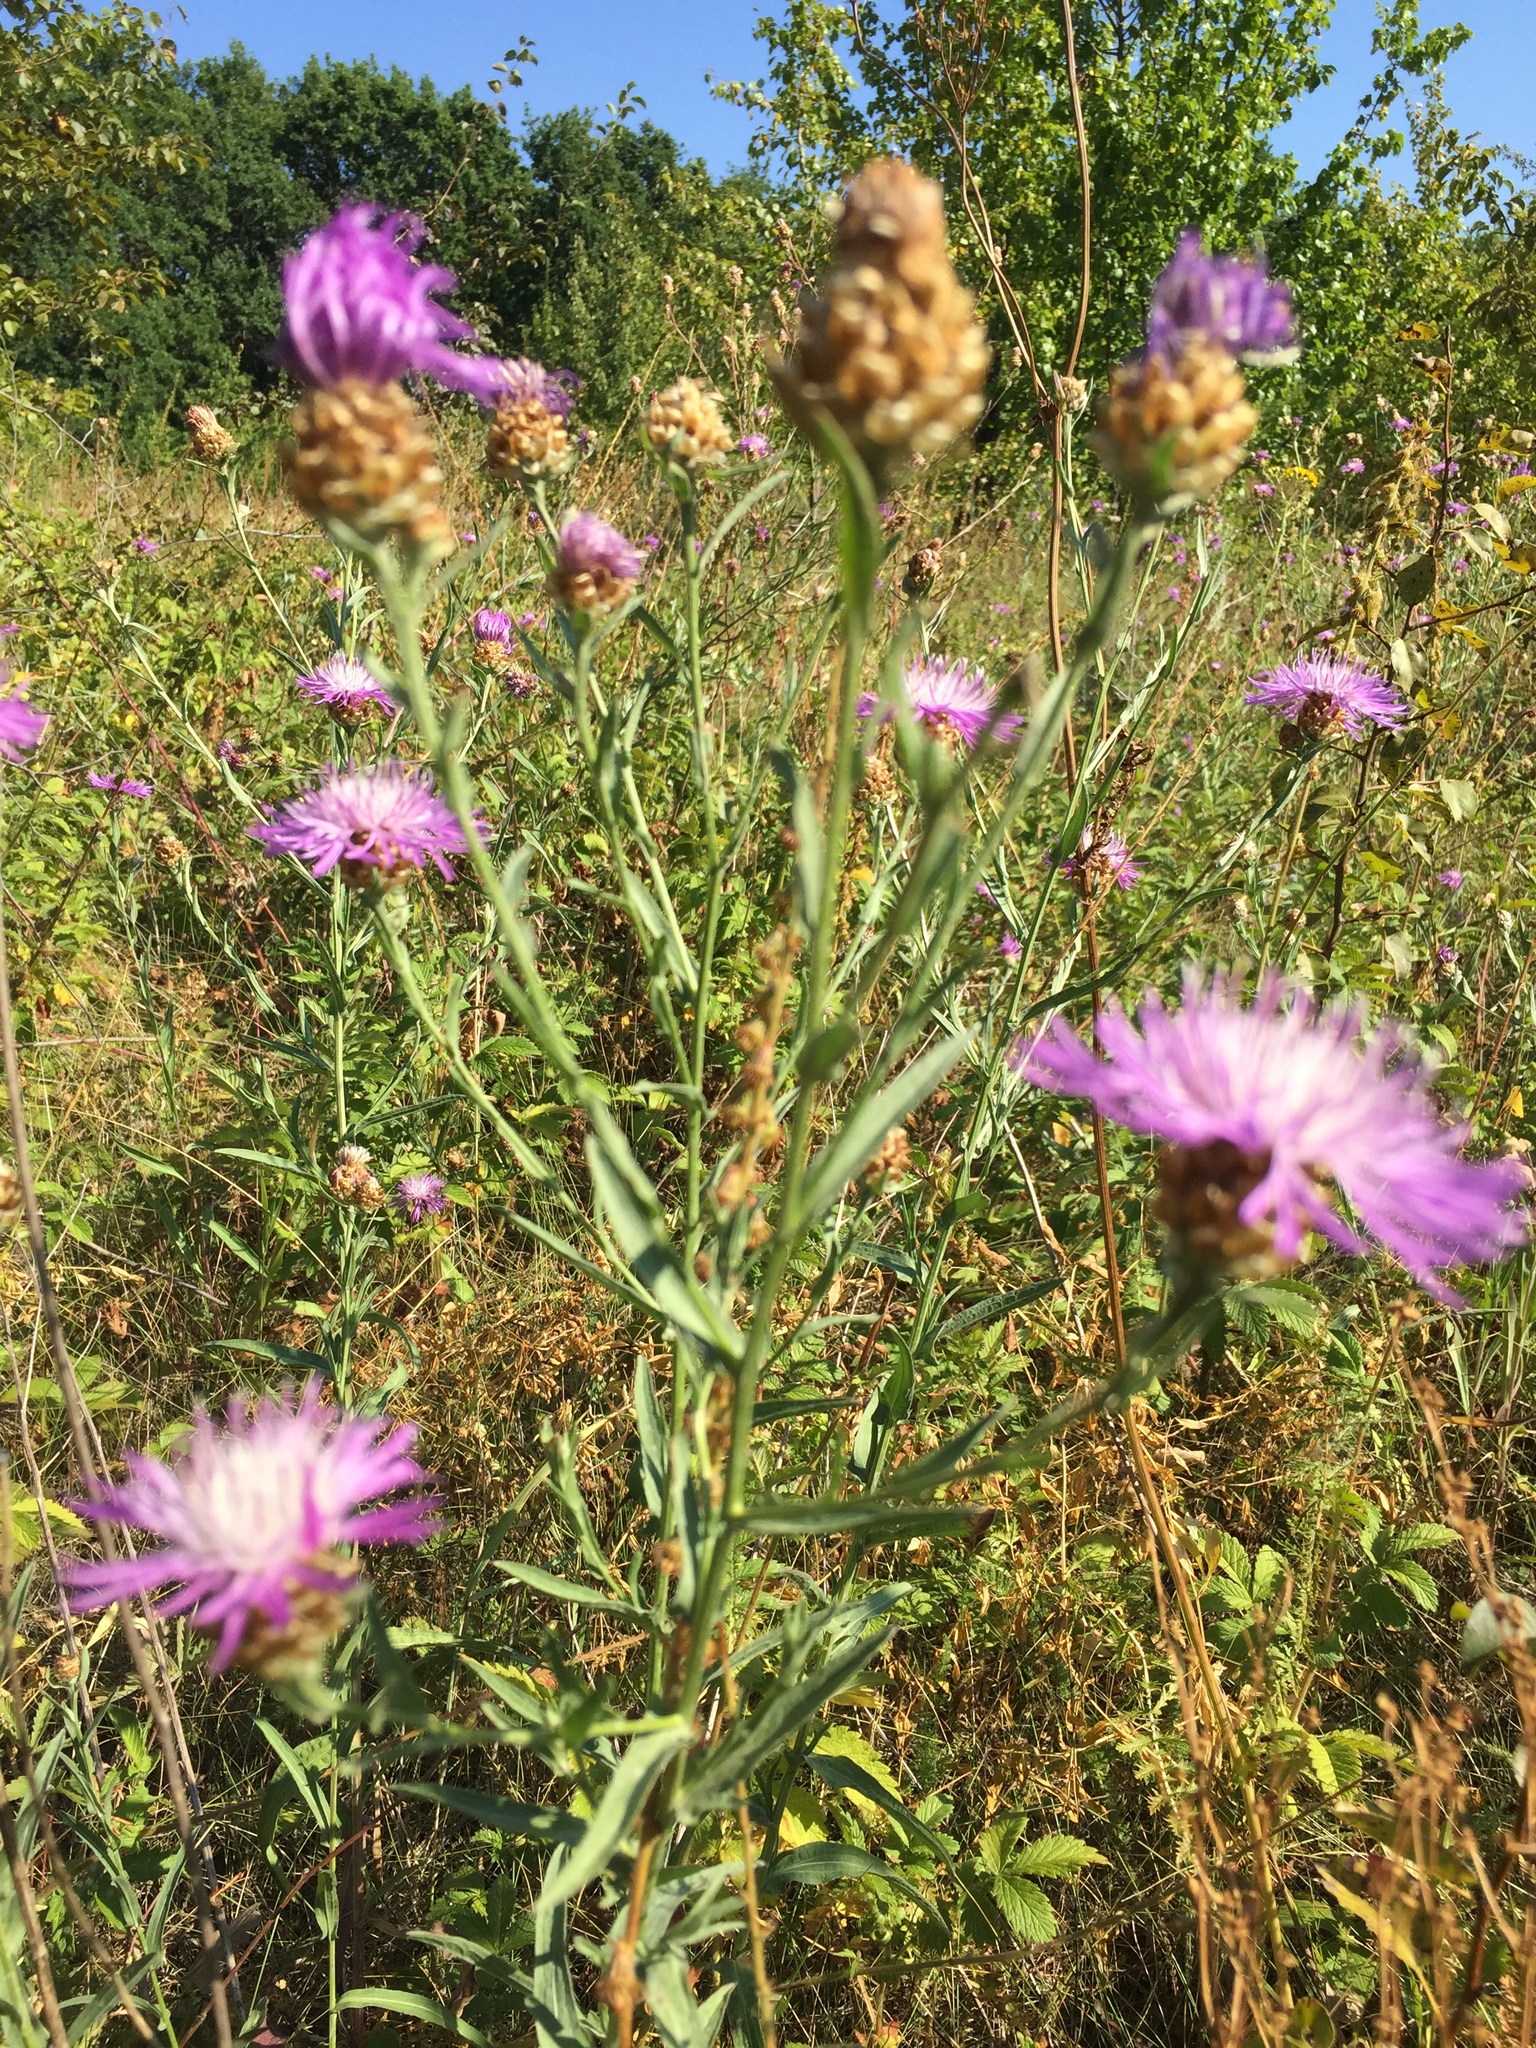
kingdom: Plantae
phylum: Tracheophyta
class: Magnoliopsida
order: Asterales
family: Asteraceae
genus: Centaurea
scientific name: Centaurea jacea
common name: Brown knapweed
